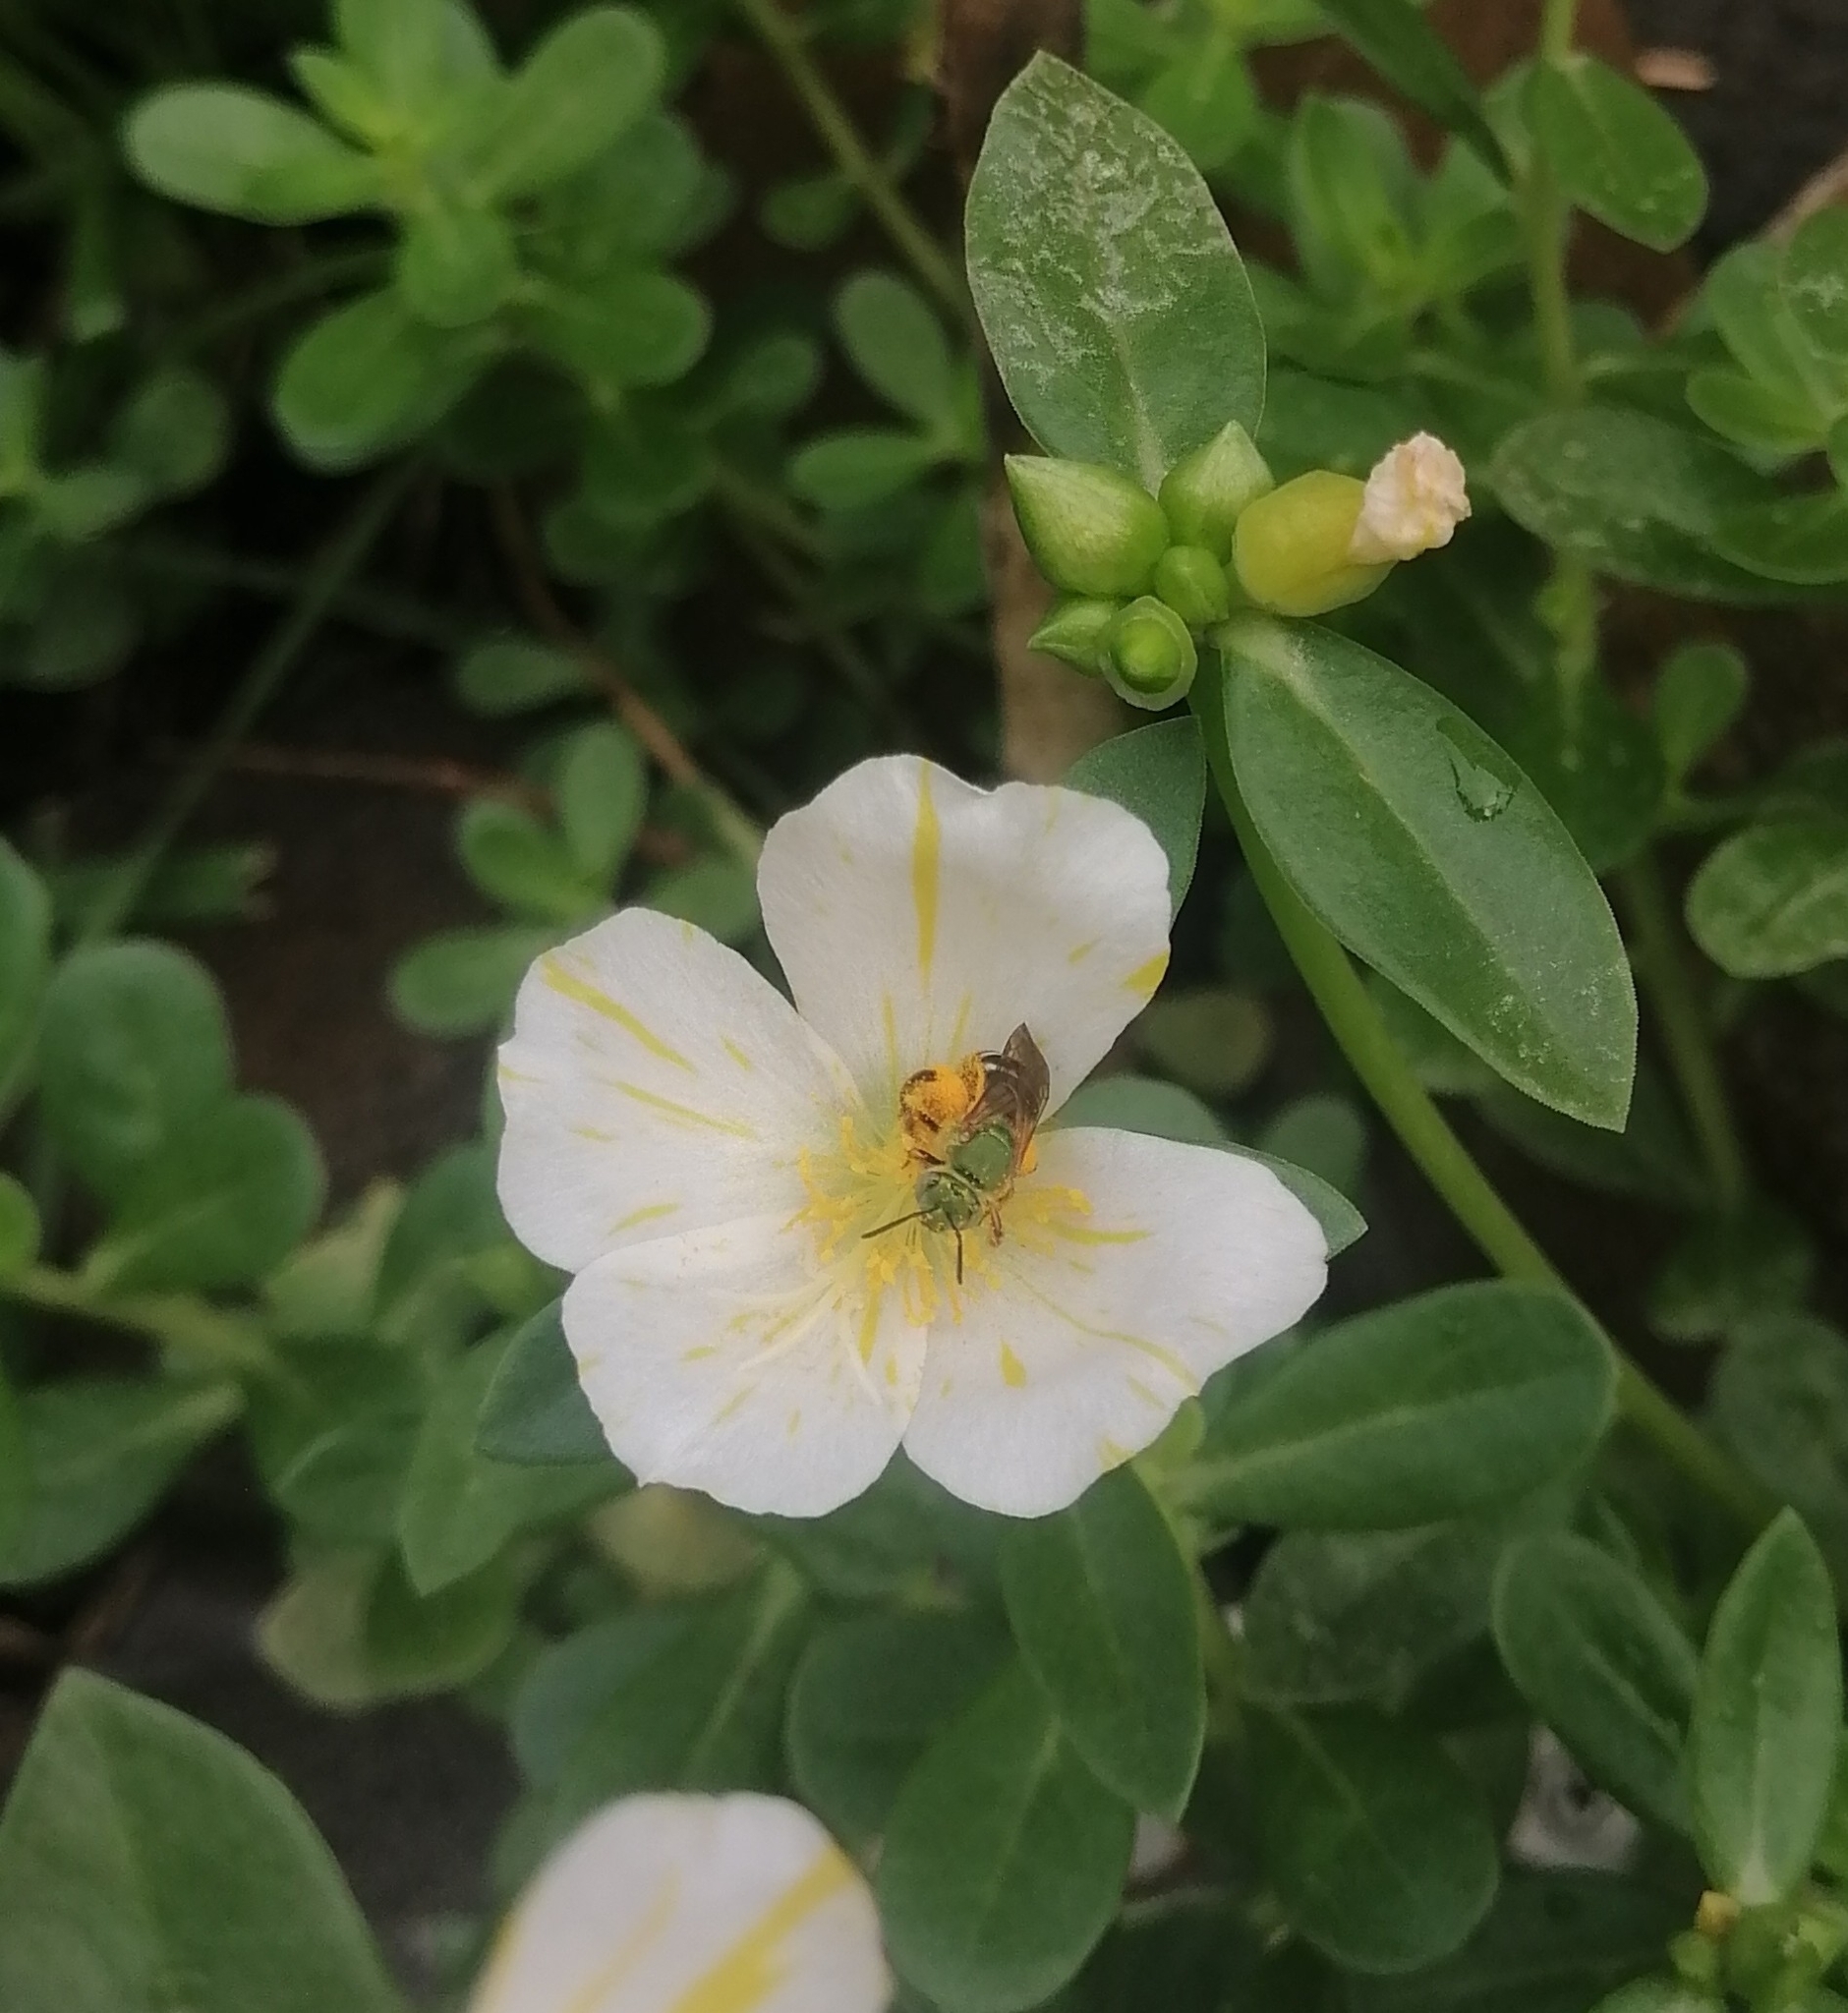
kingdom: Animalia
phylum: Arthropoda
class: Insecta
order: Hymenoptera
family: Halictidae
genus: Agapostemon
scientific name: Agapostemon
